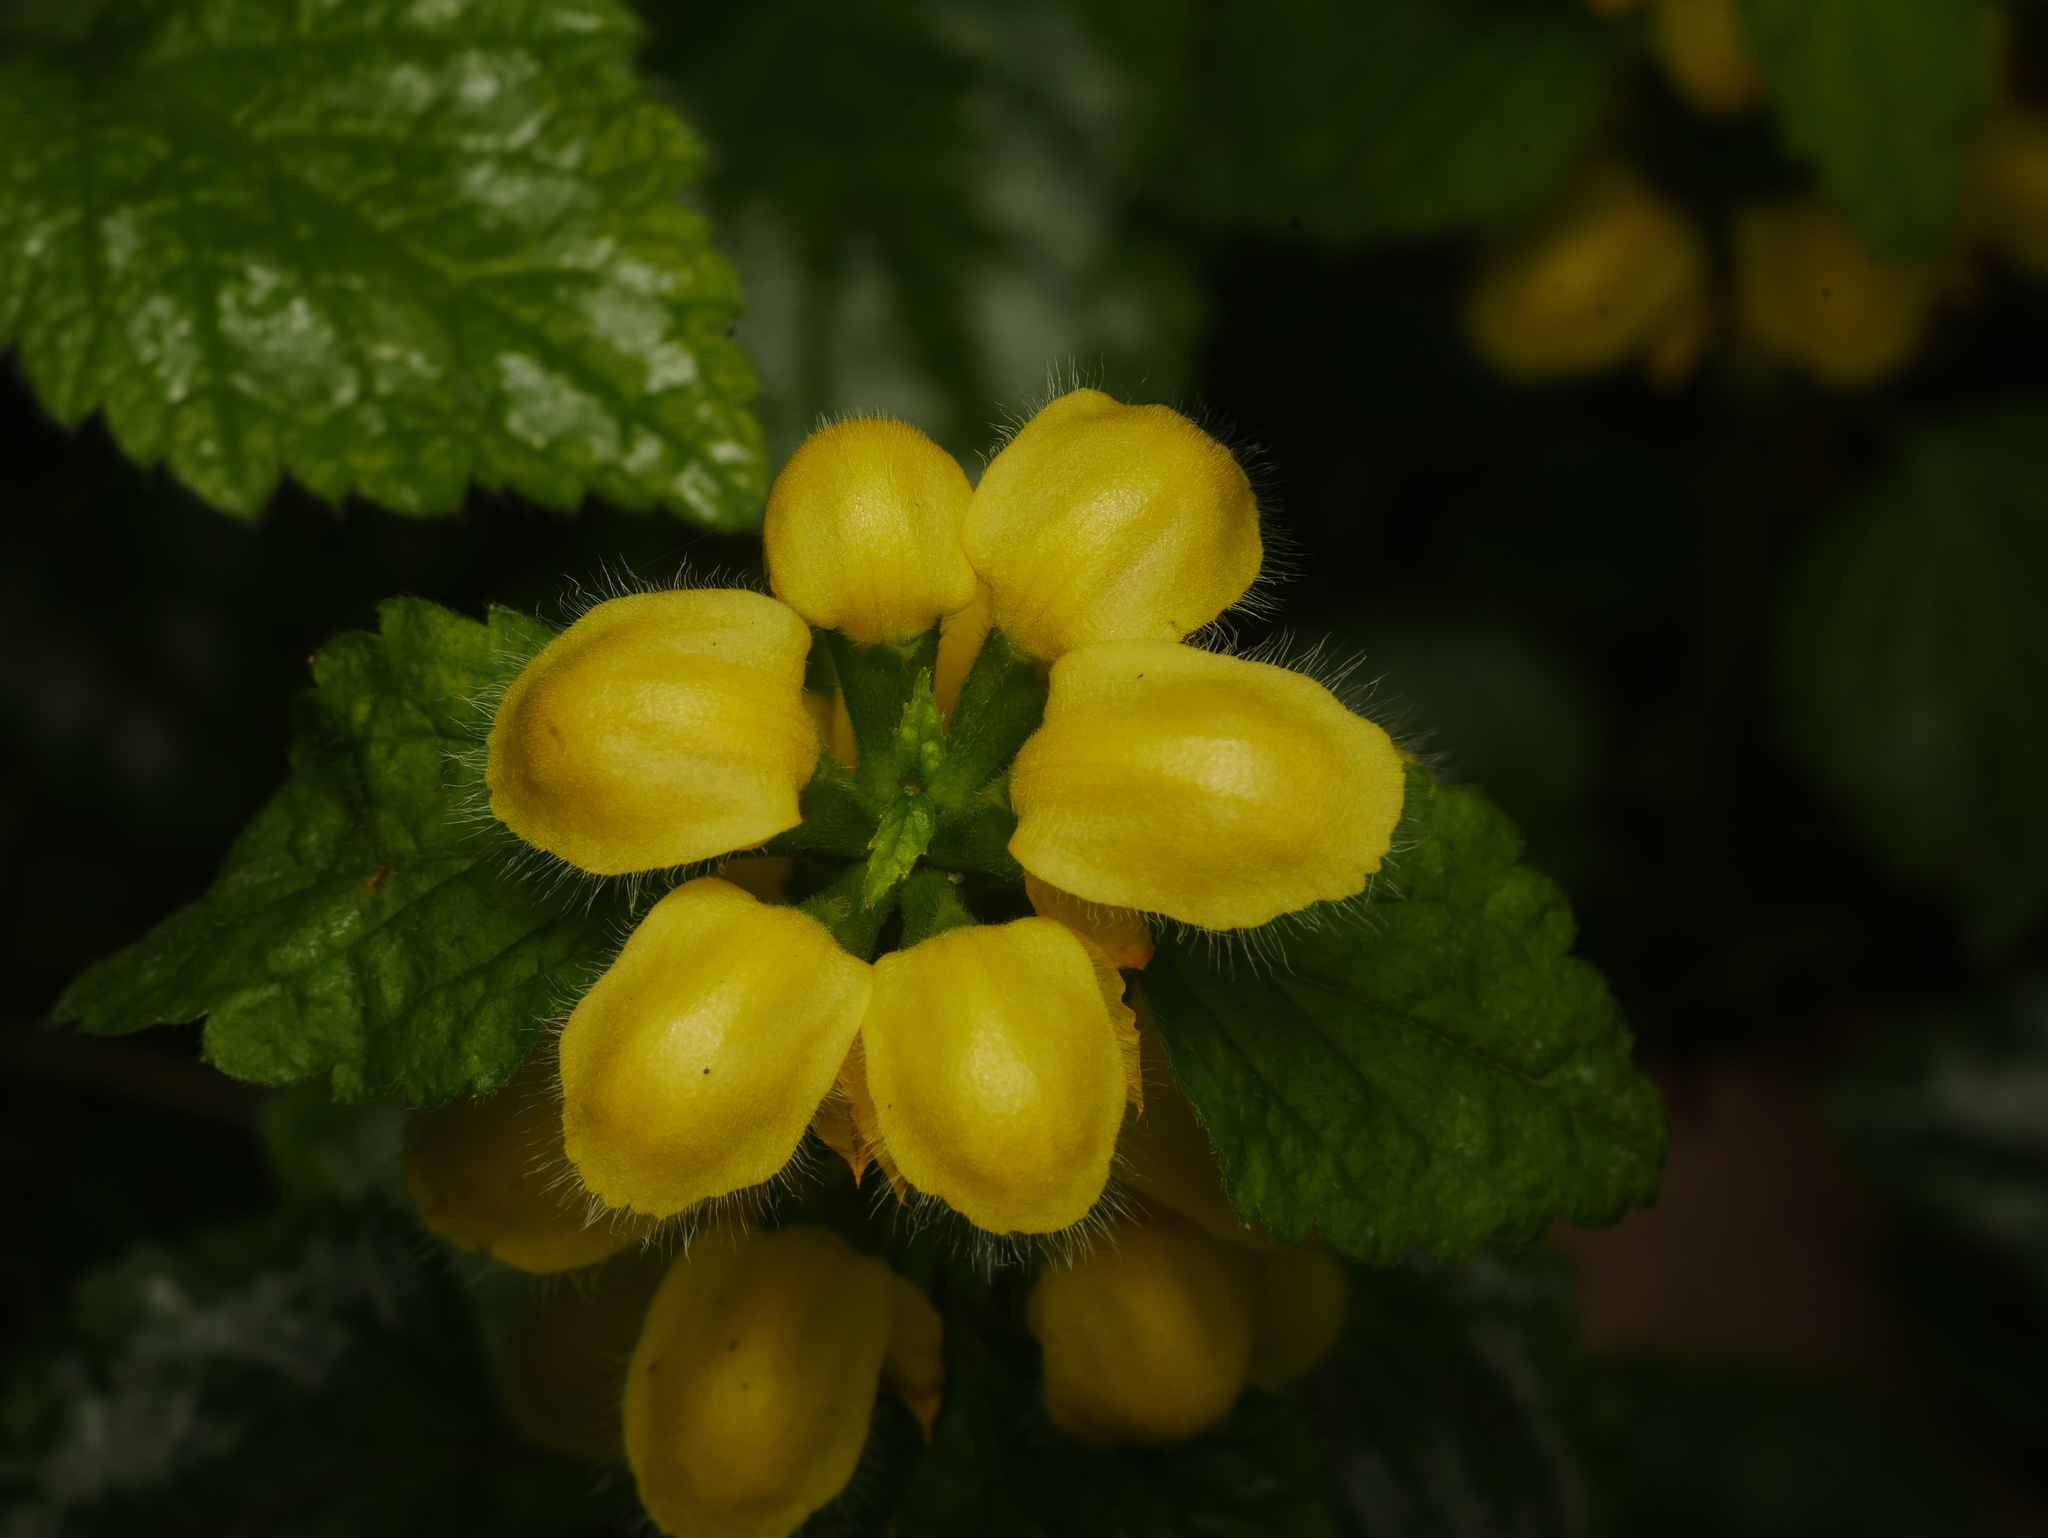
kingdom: Plantae
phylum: Tracheophyta
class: Magnoliopsida
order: Lamiales
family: Lamiaceae
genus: Lamium
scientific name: Lamium galeobdolon
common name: Yellow archangel
